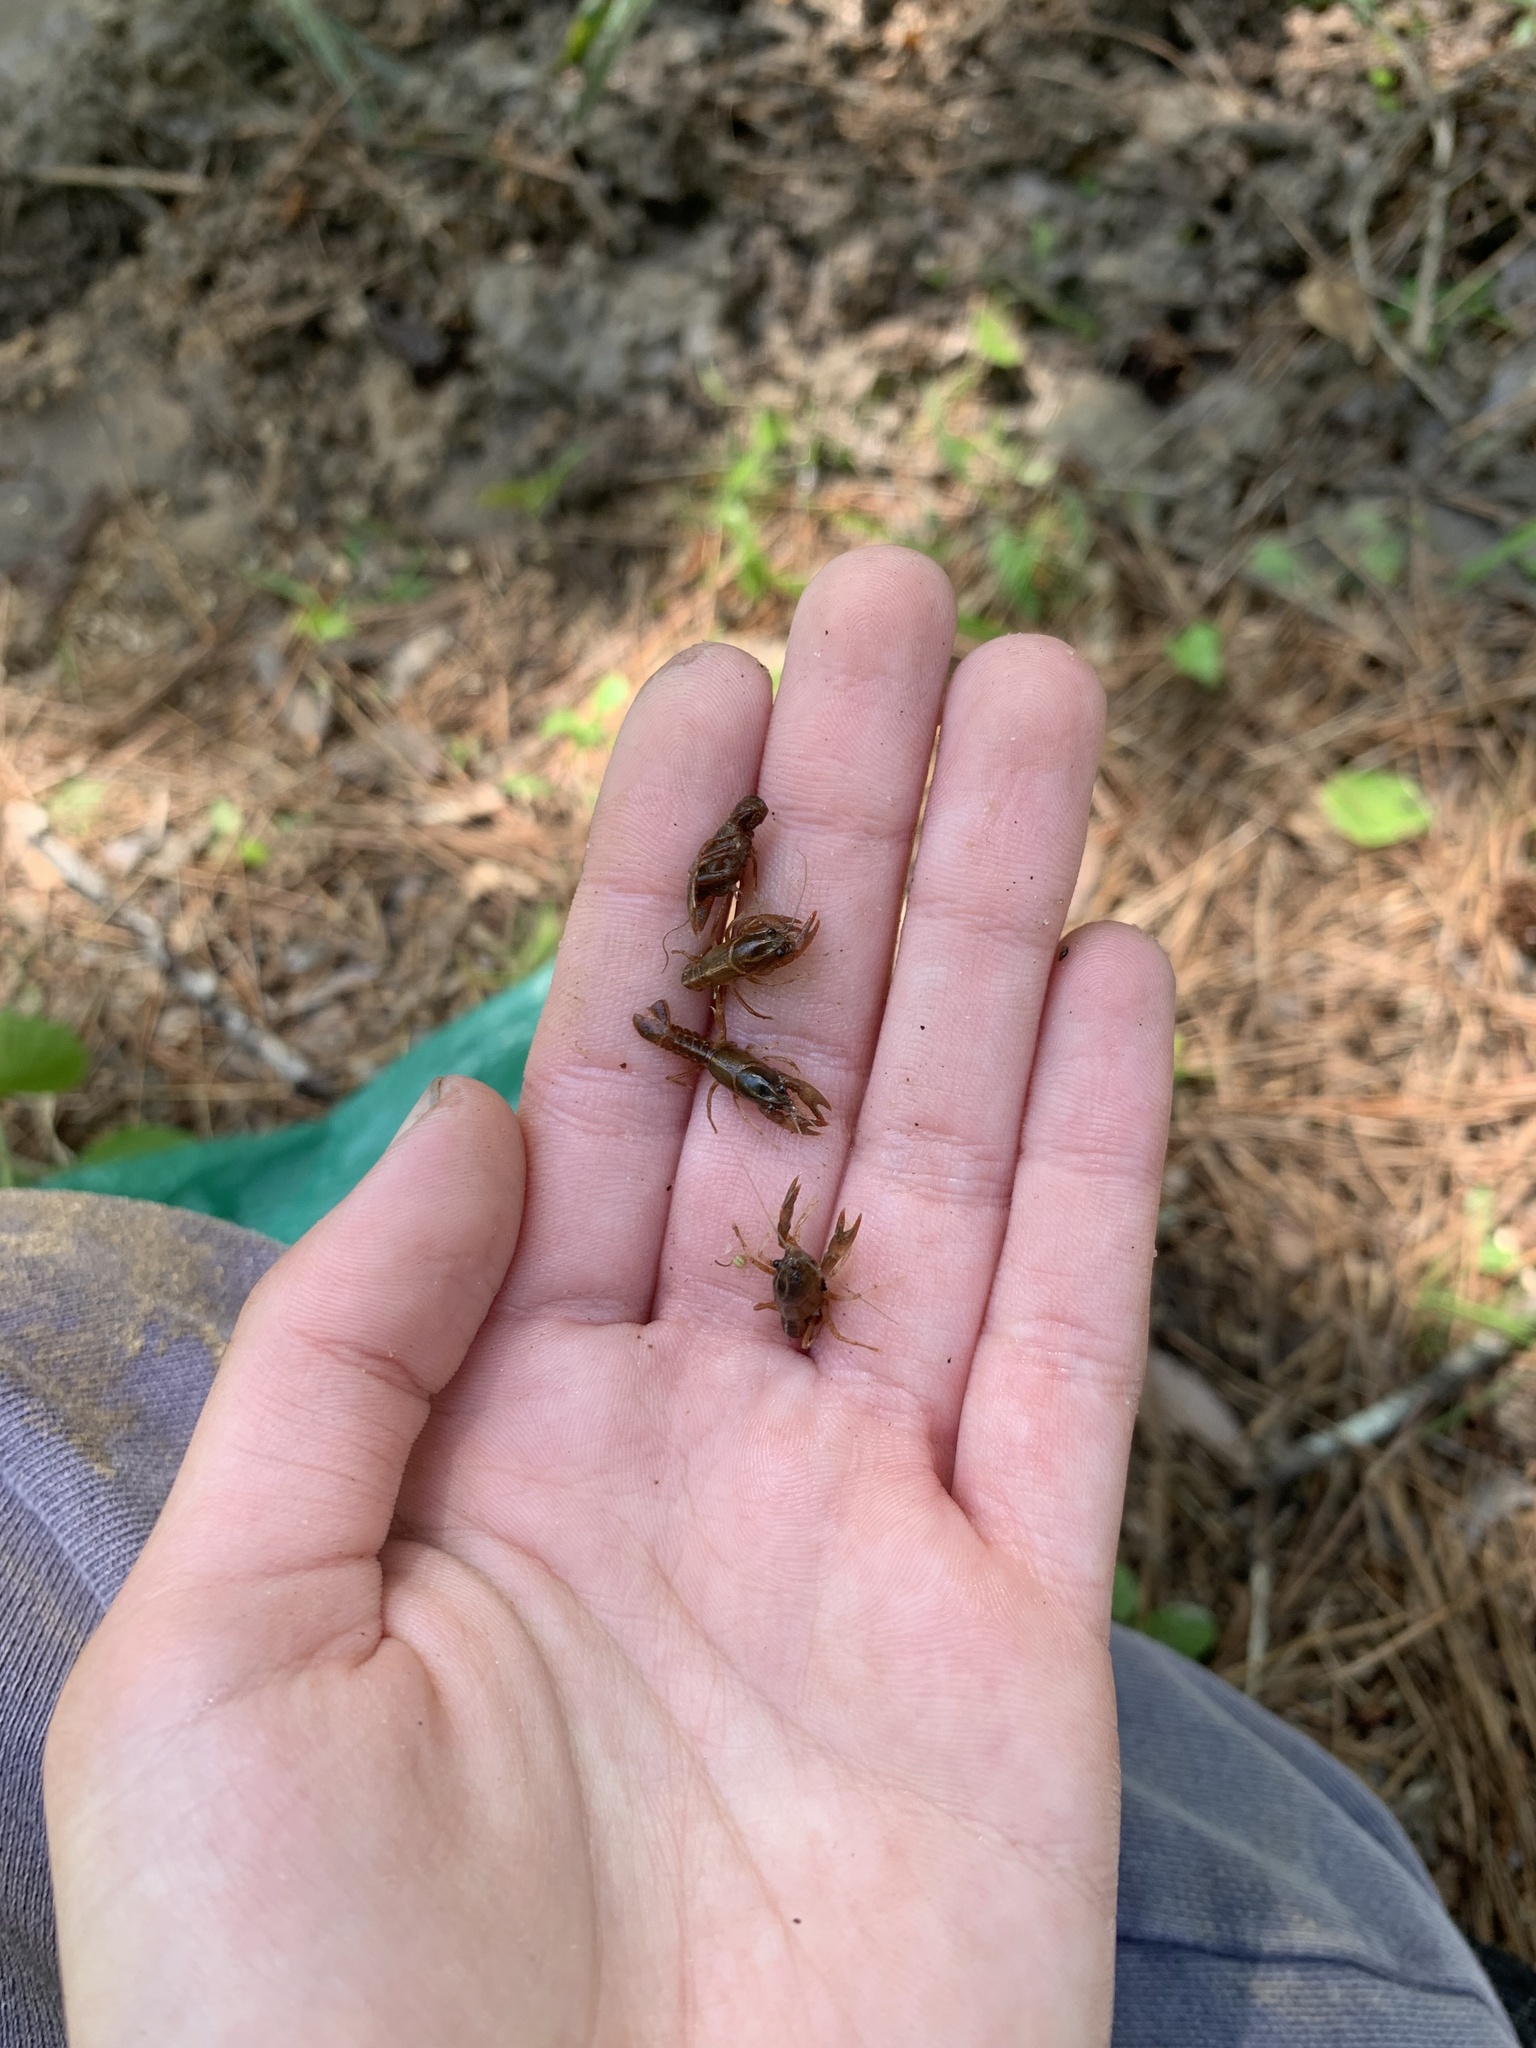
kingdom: Animalia
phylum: Arthropoda
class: Malacostraca
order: Decapoda
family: Cambaridae
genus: Lacunicambarus
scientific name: Lacunicambarus ludovicianus
